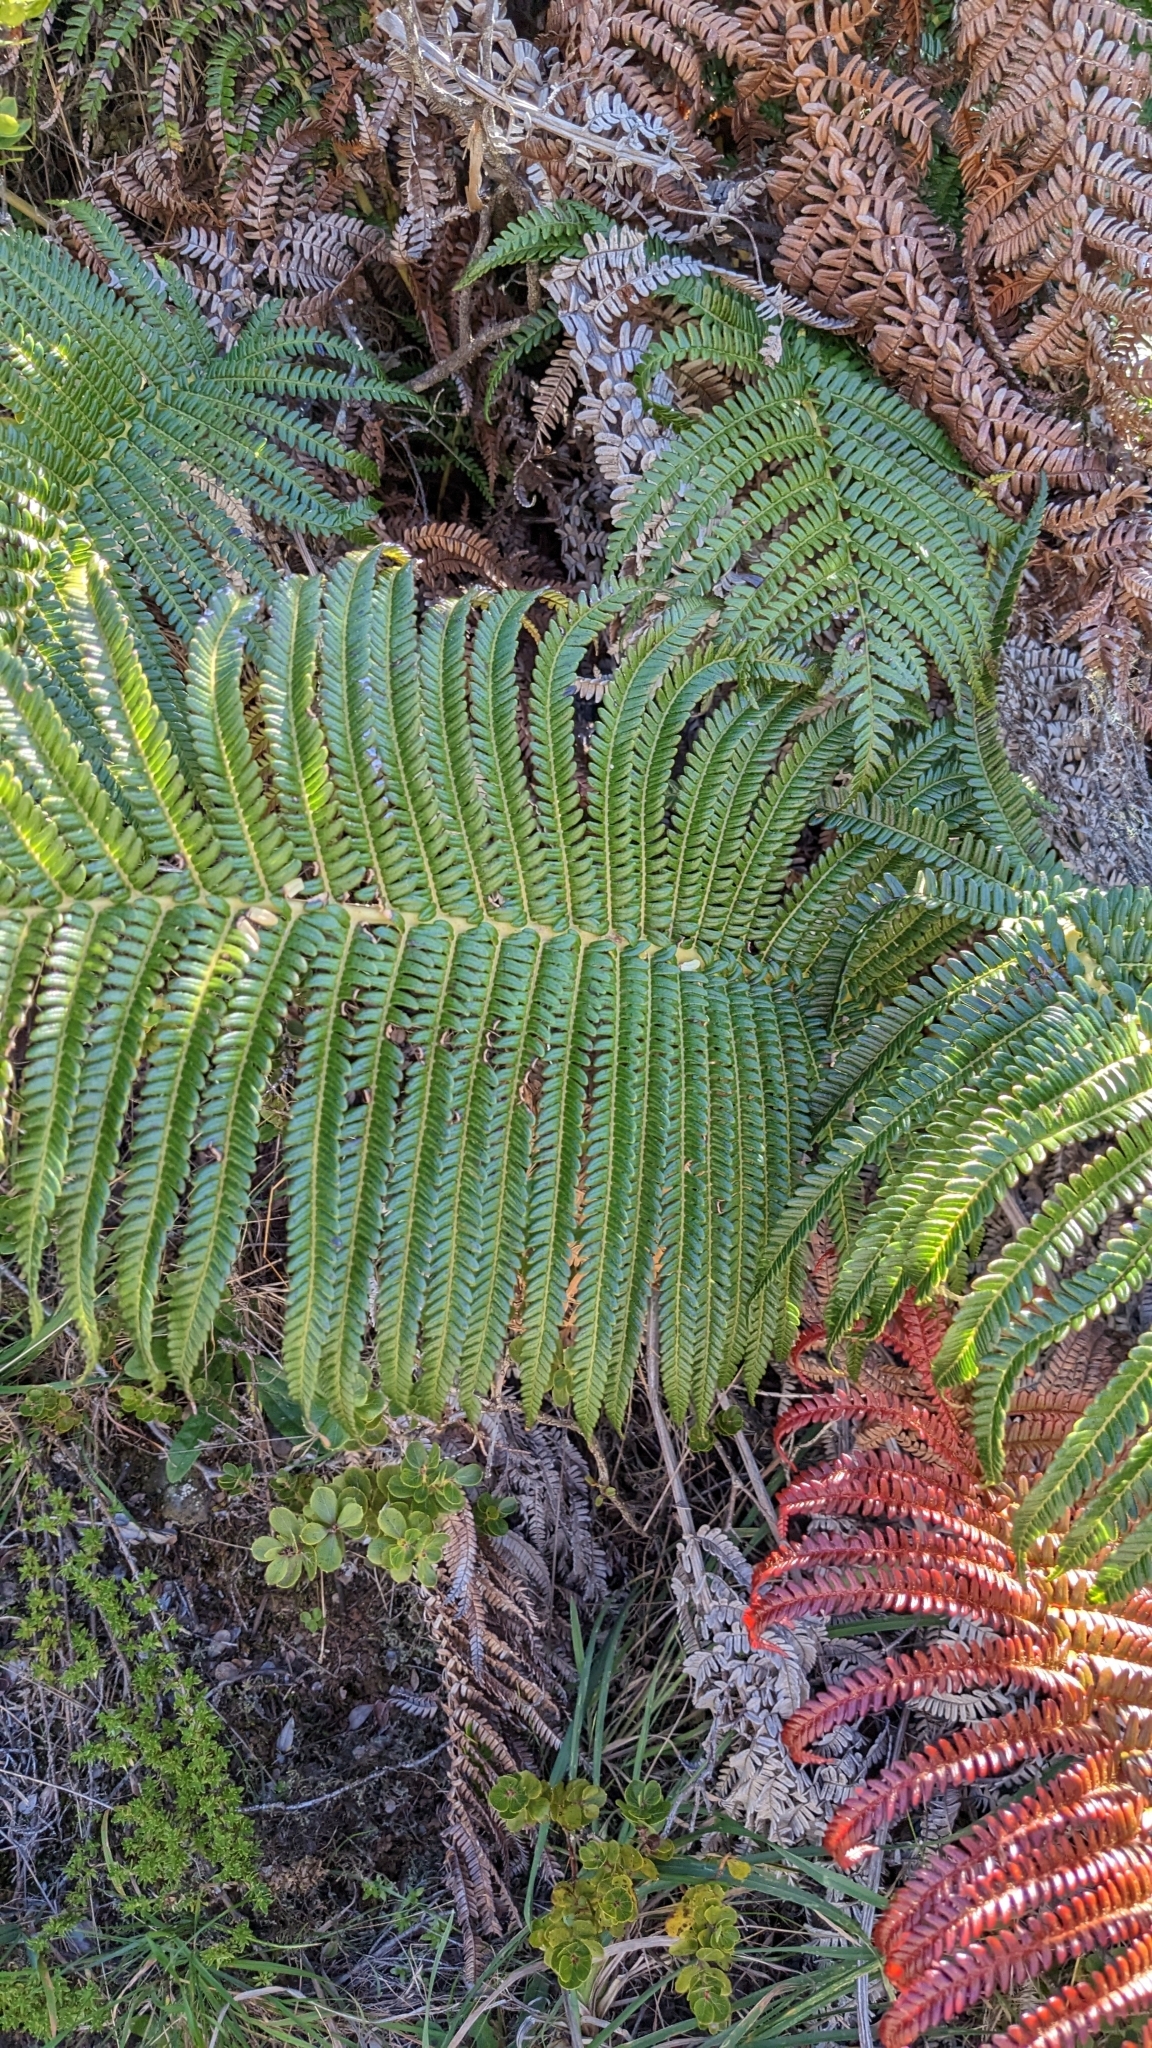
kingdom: Plantae
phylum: Tracheophyta
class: Polypodiopsida
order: Polypodiales
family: Blechnaceae
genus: Sadleria
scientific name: Sadleria cyatheoides
